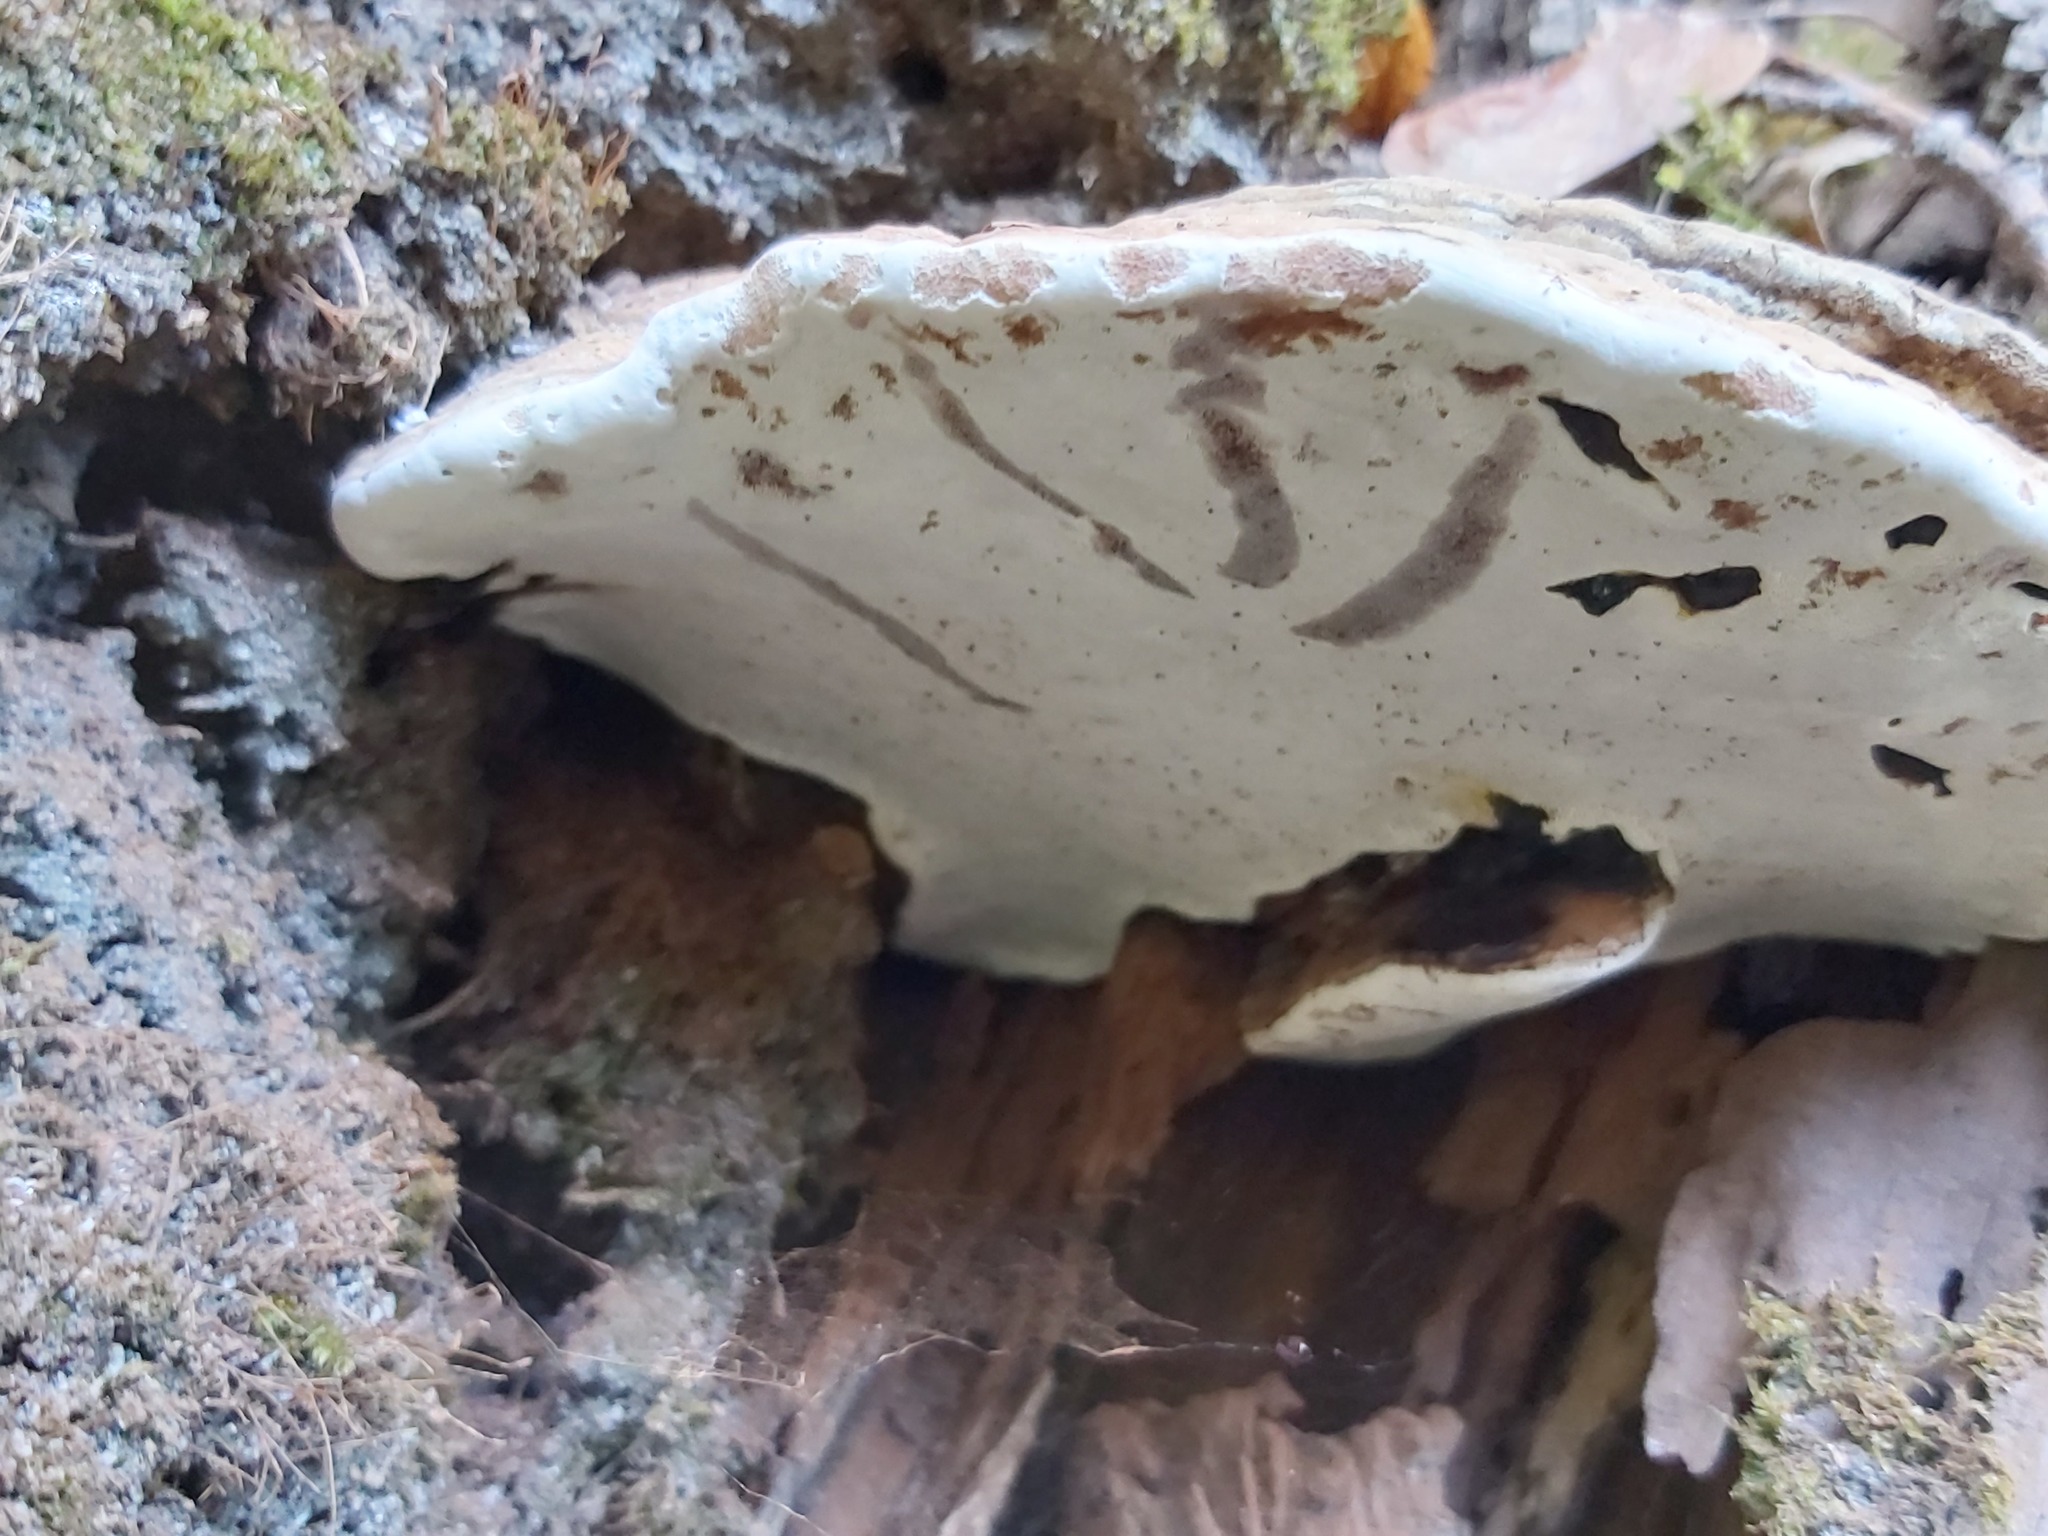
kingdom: Fungi
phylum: Basidiomycota
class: Agaricomycetes
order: Polyporales
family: Polyporaceae
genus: Ganoderma
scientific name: Ganoderma applanatum
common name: Artist's bracket
